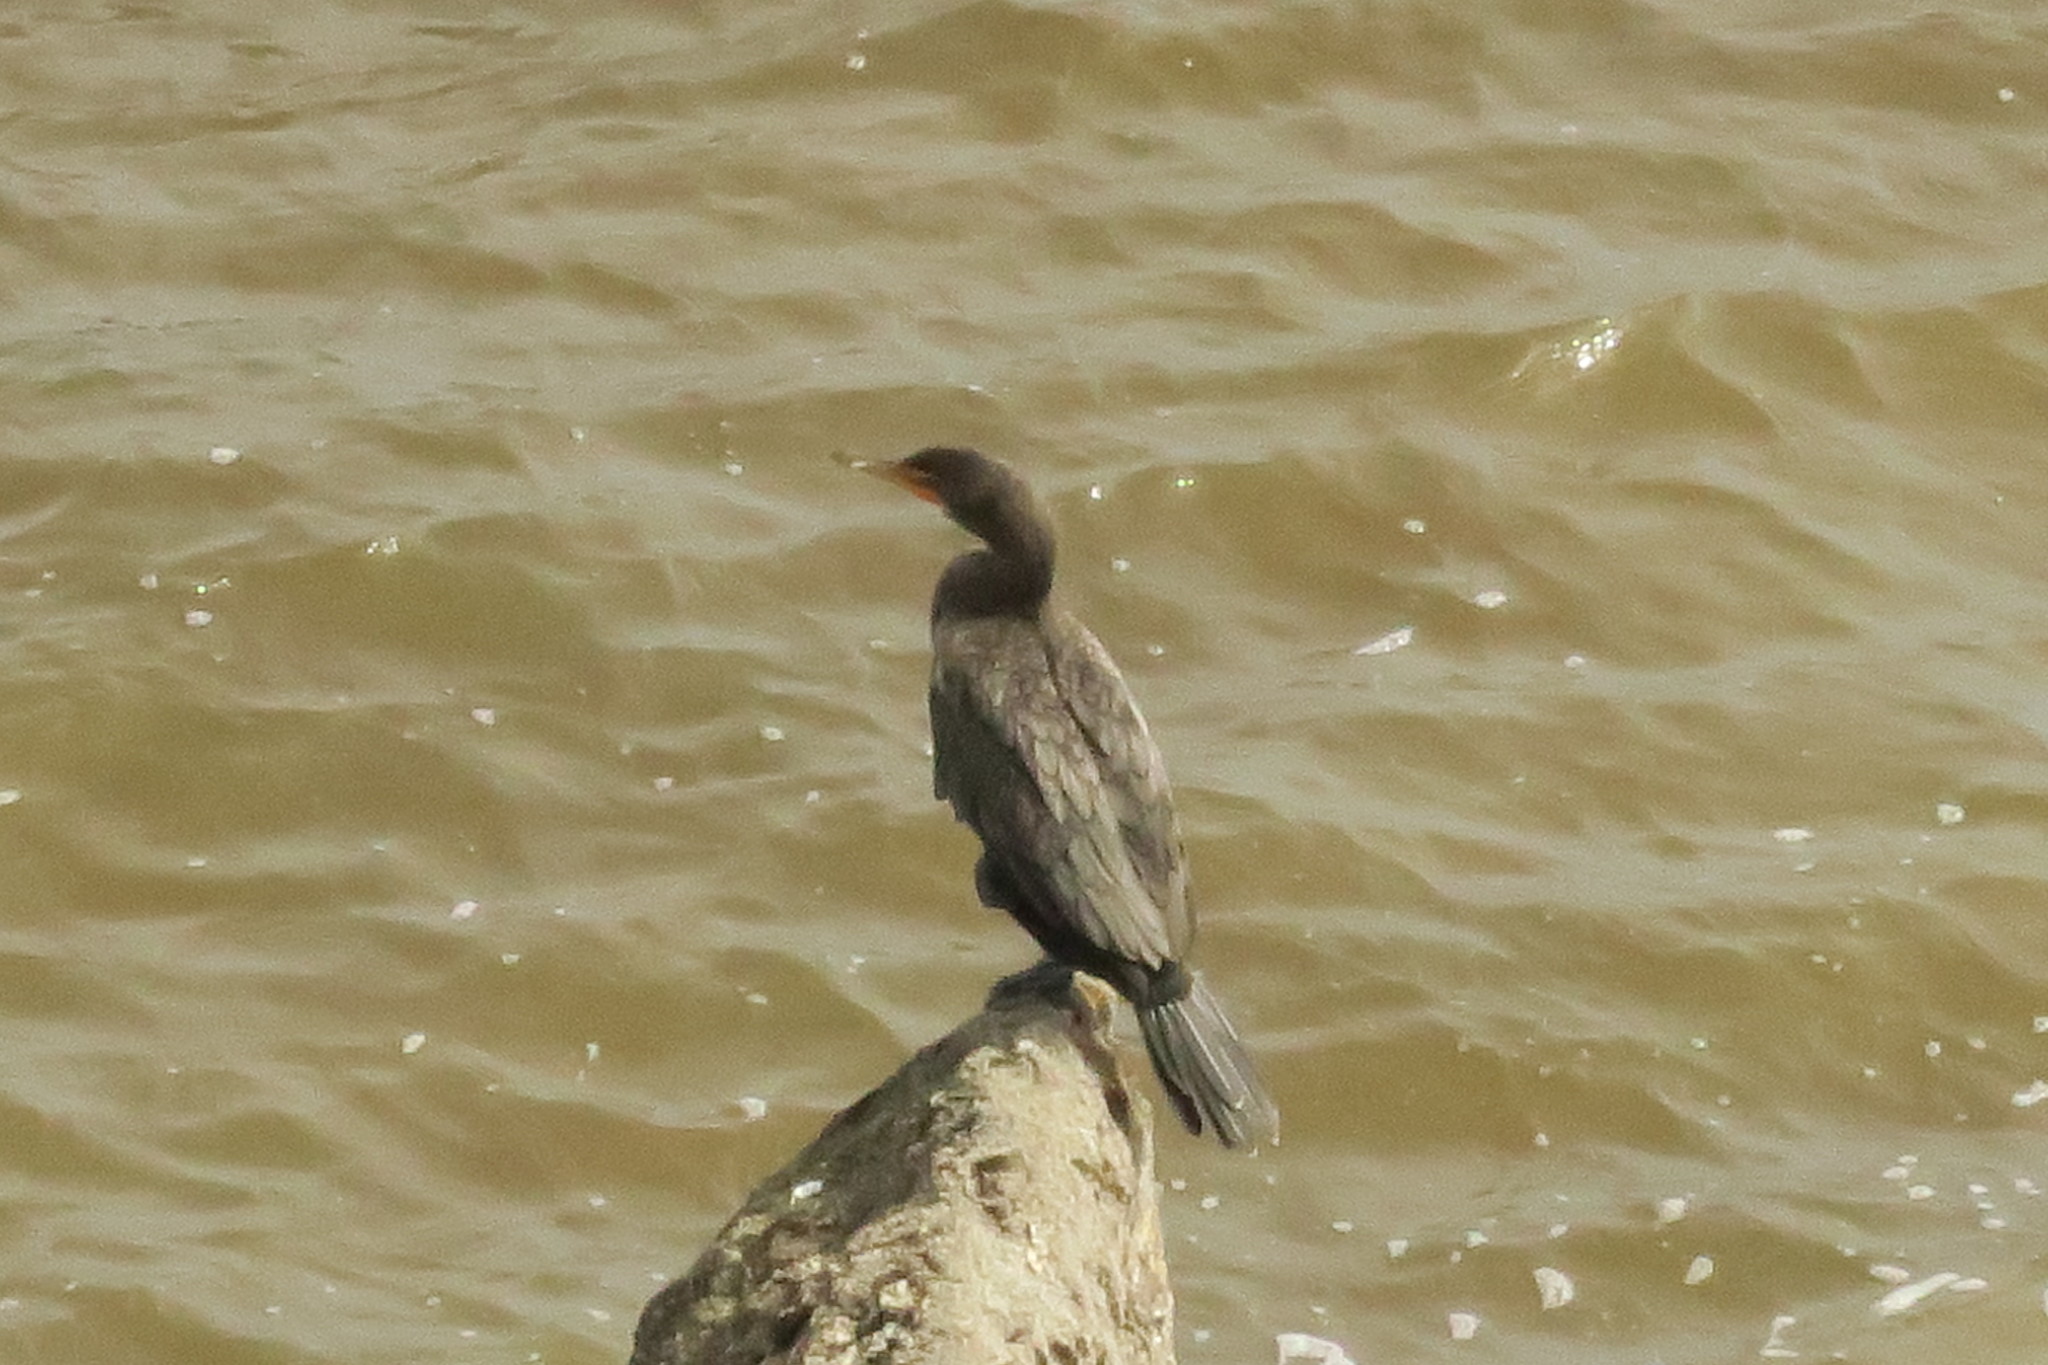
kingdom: Animalia
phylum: Chordata
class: Aves
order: Suliformes
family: Phalacrocoracidae
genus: Phalacrocorax
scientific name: Phalacrocorax auritus
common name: Double-crested cormorant
